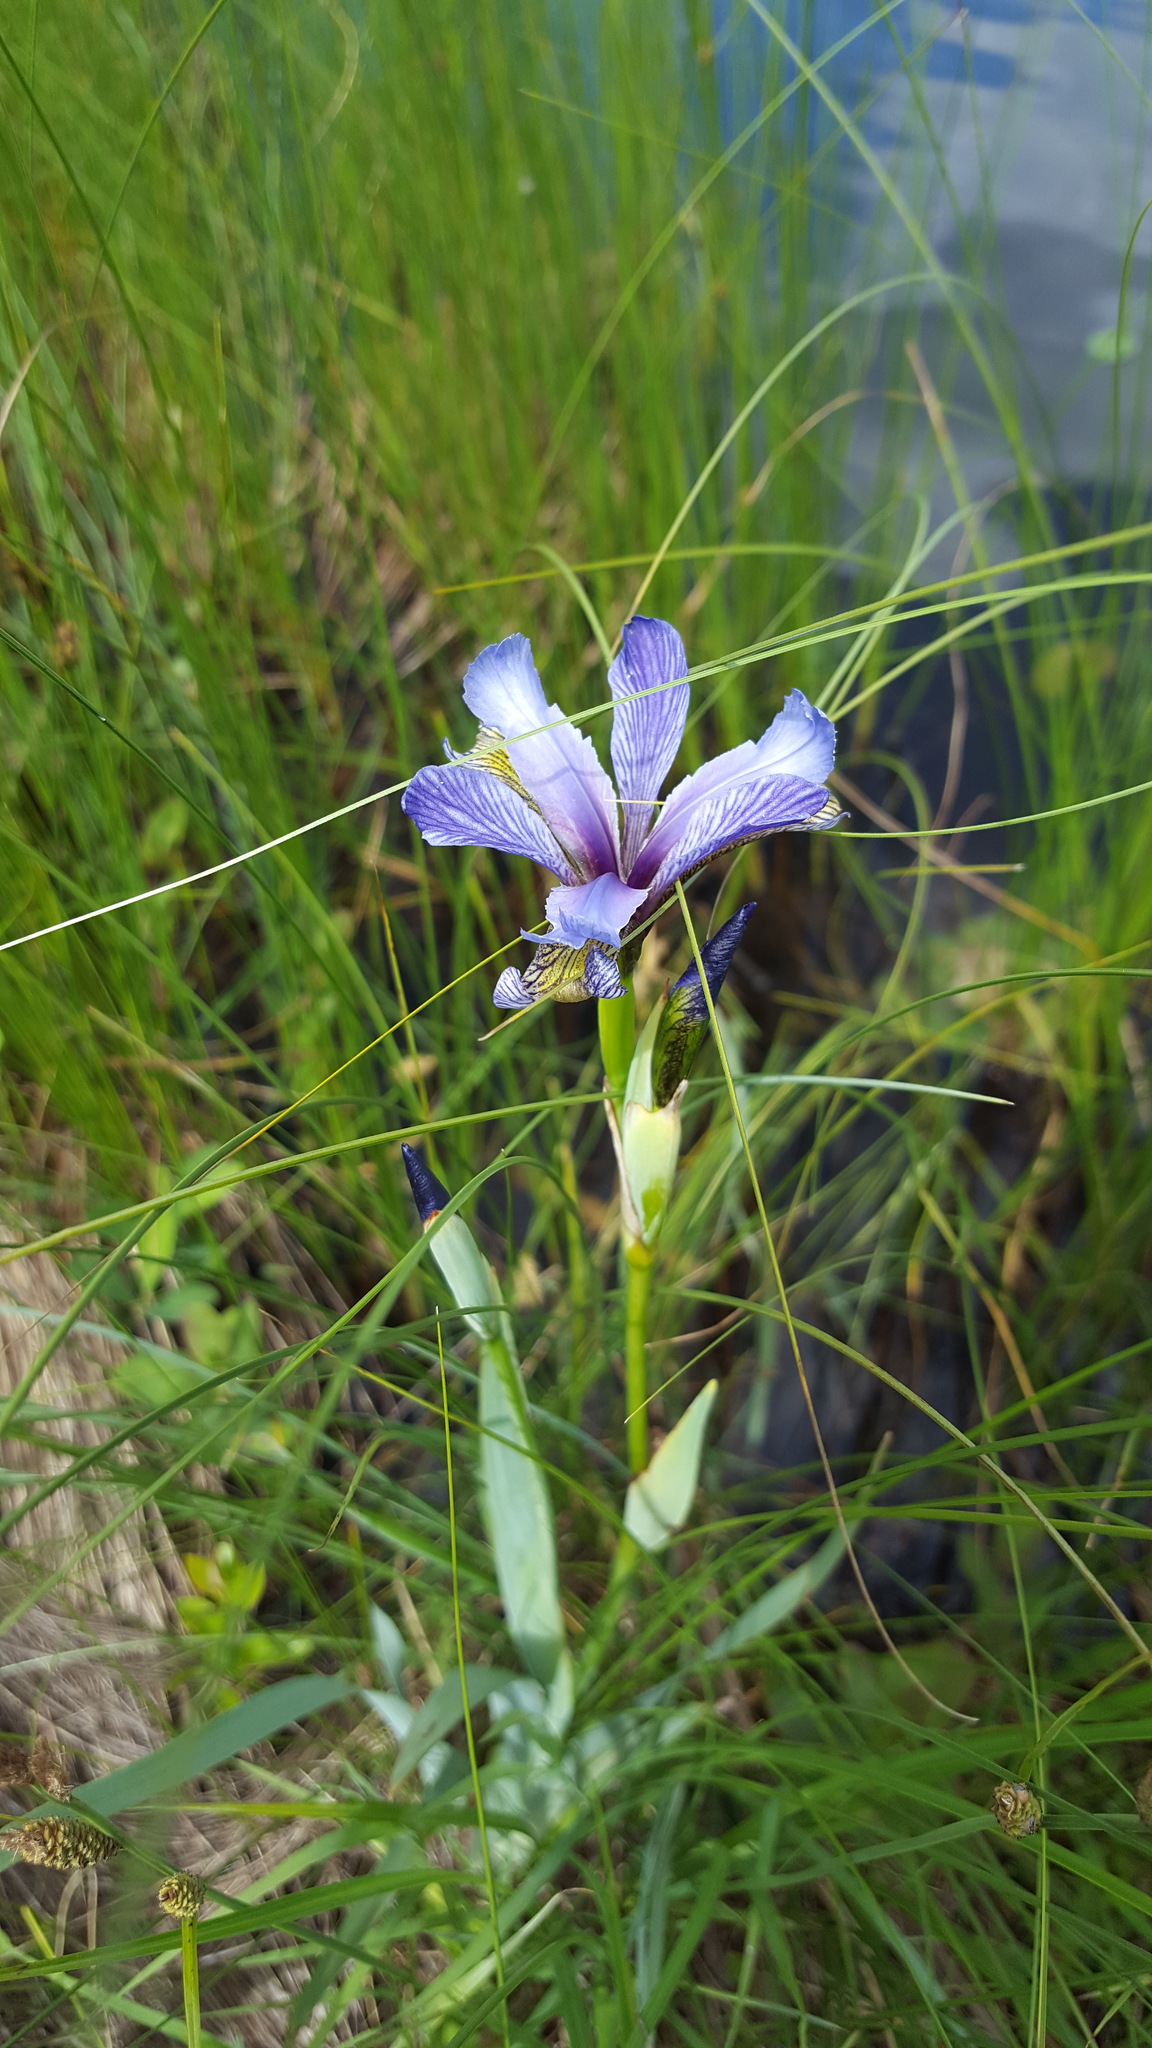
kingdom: Plantae
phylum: Tracheophyta
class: Liliopsida
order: Asparagales
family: Iridaceae
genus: Iris
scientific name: Iris versicolor
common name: Purple iris
